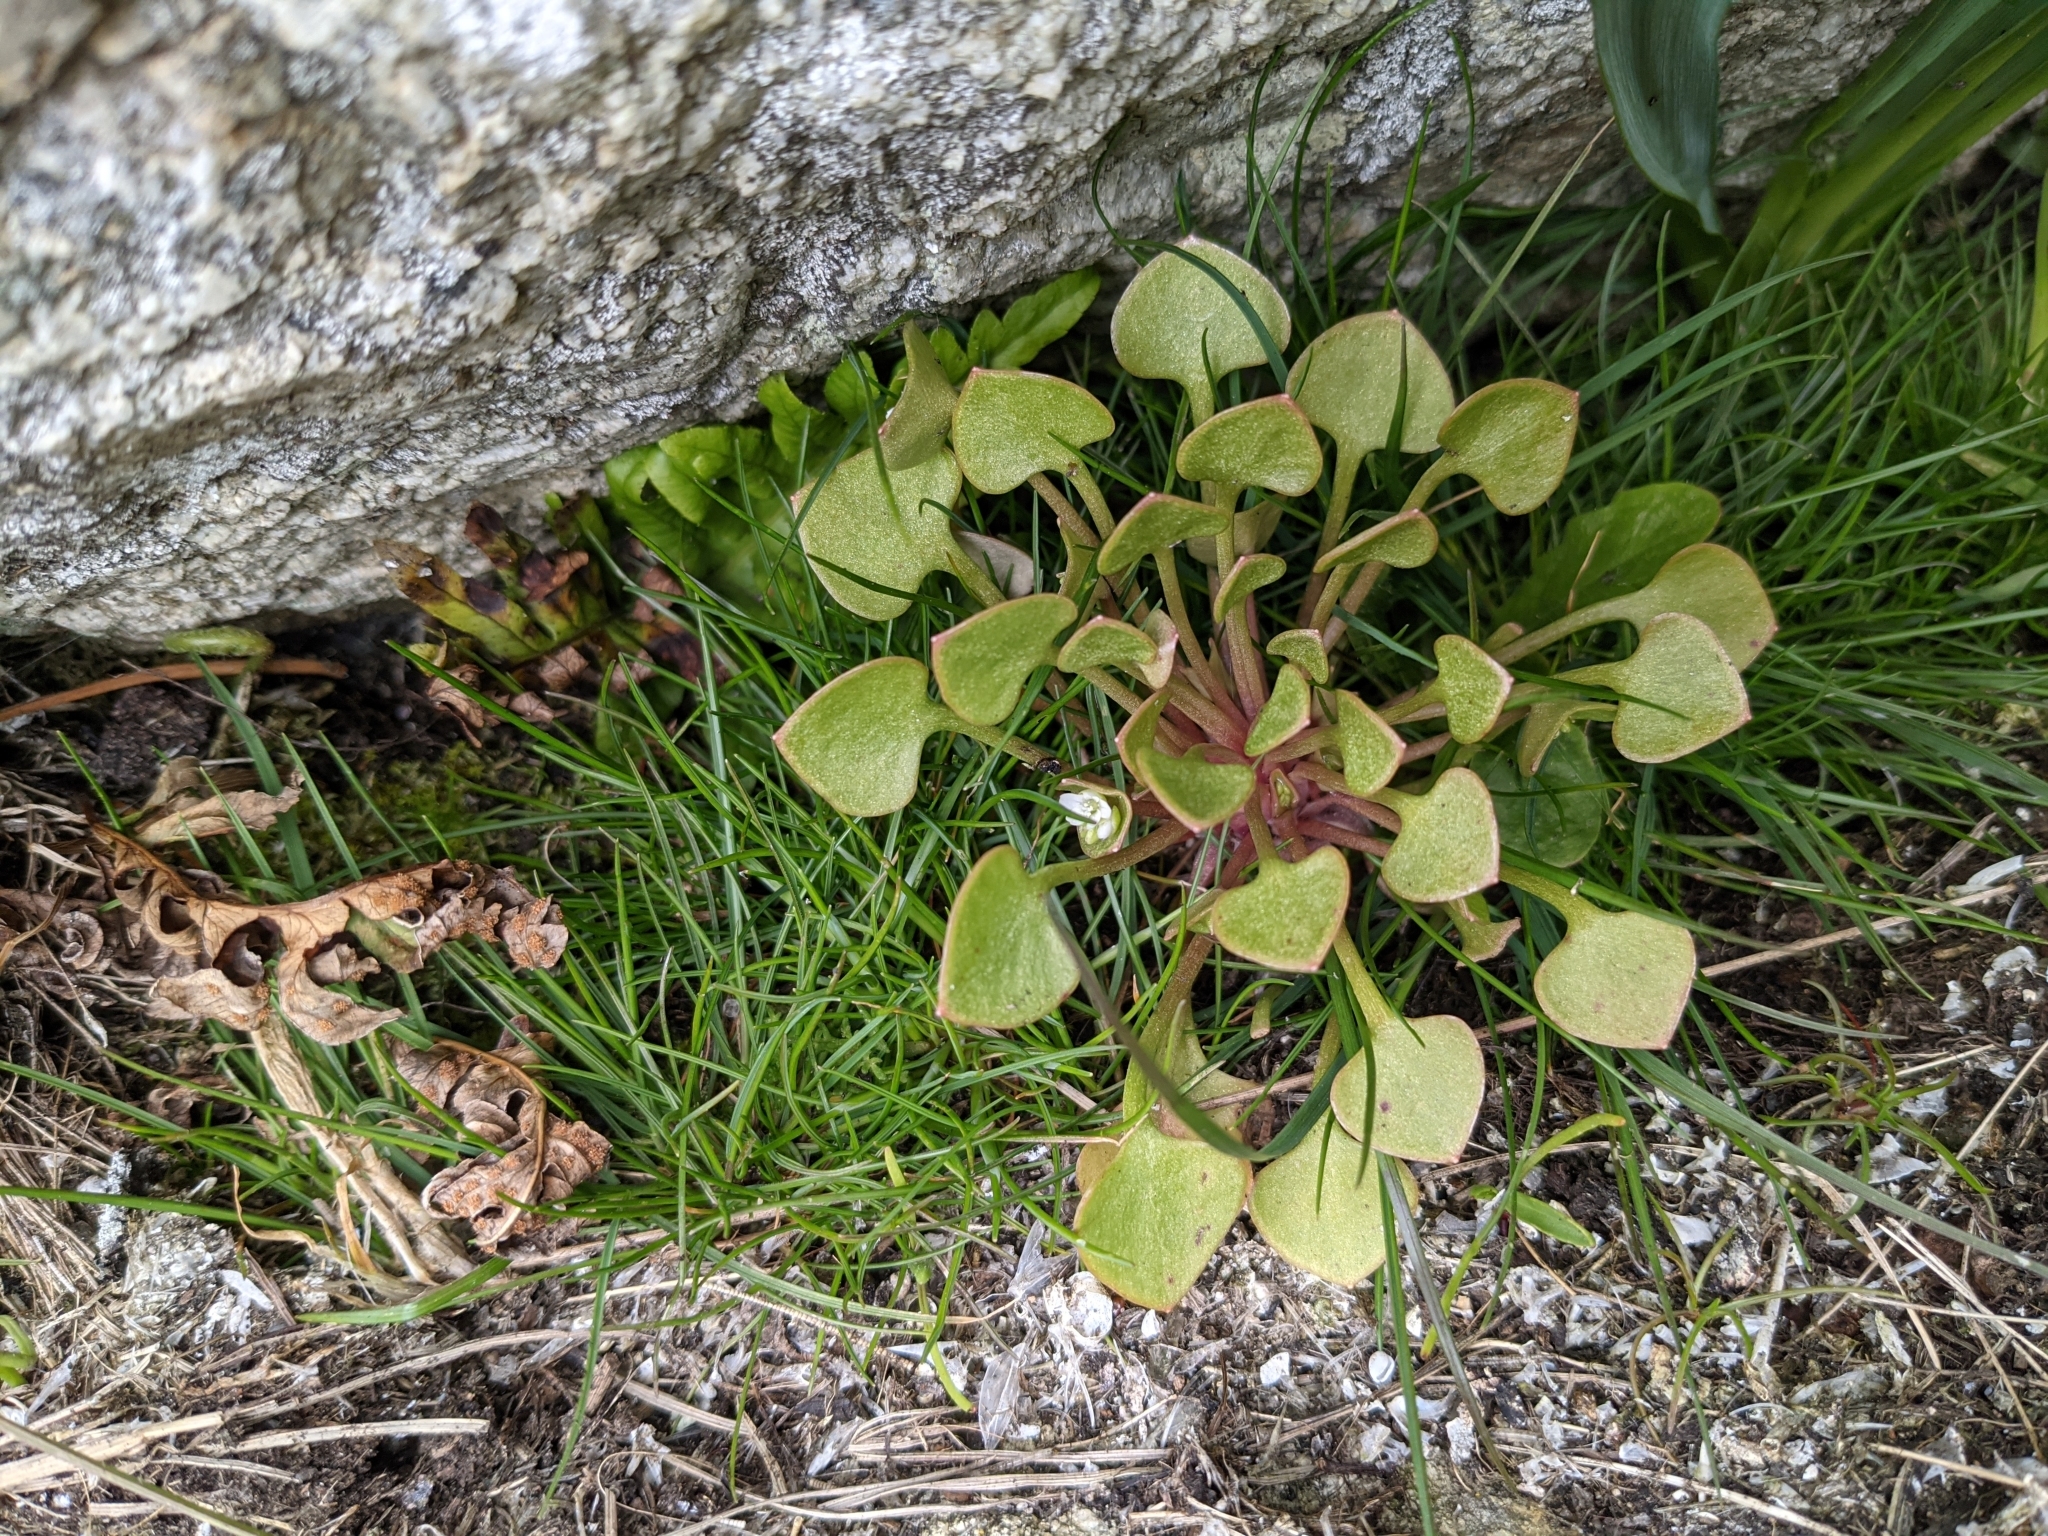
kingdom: Plantae
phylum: Tracheophyta
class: Magnoliopsida
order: Caryophyllales
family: Montiaceae
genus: Claytonia
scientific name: Claytonia rubra
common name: Erubescent miner's-lettuce
